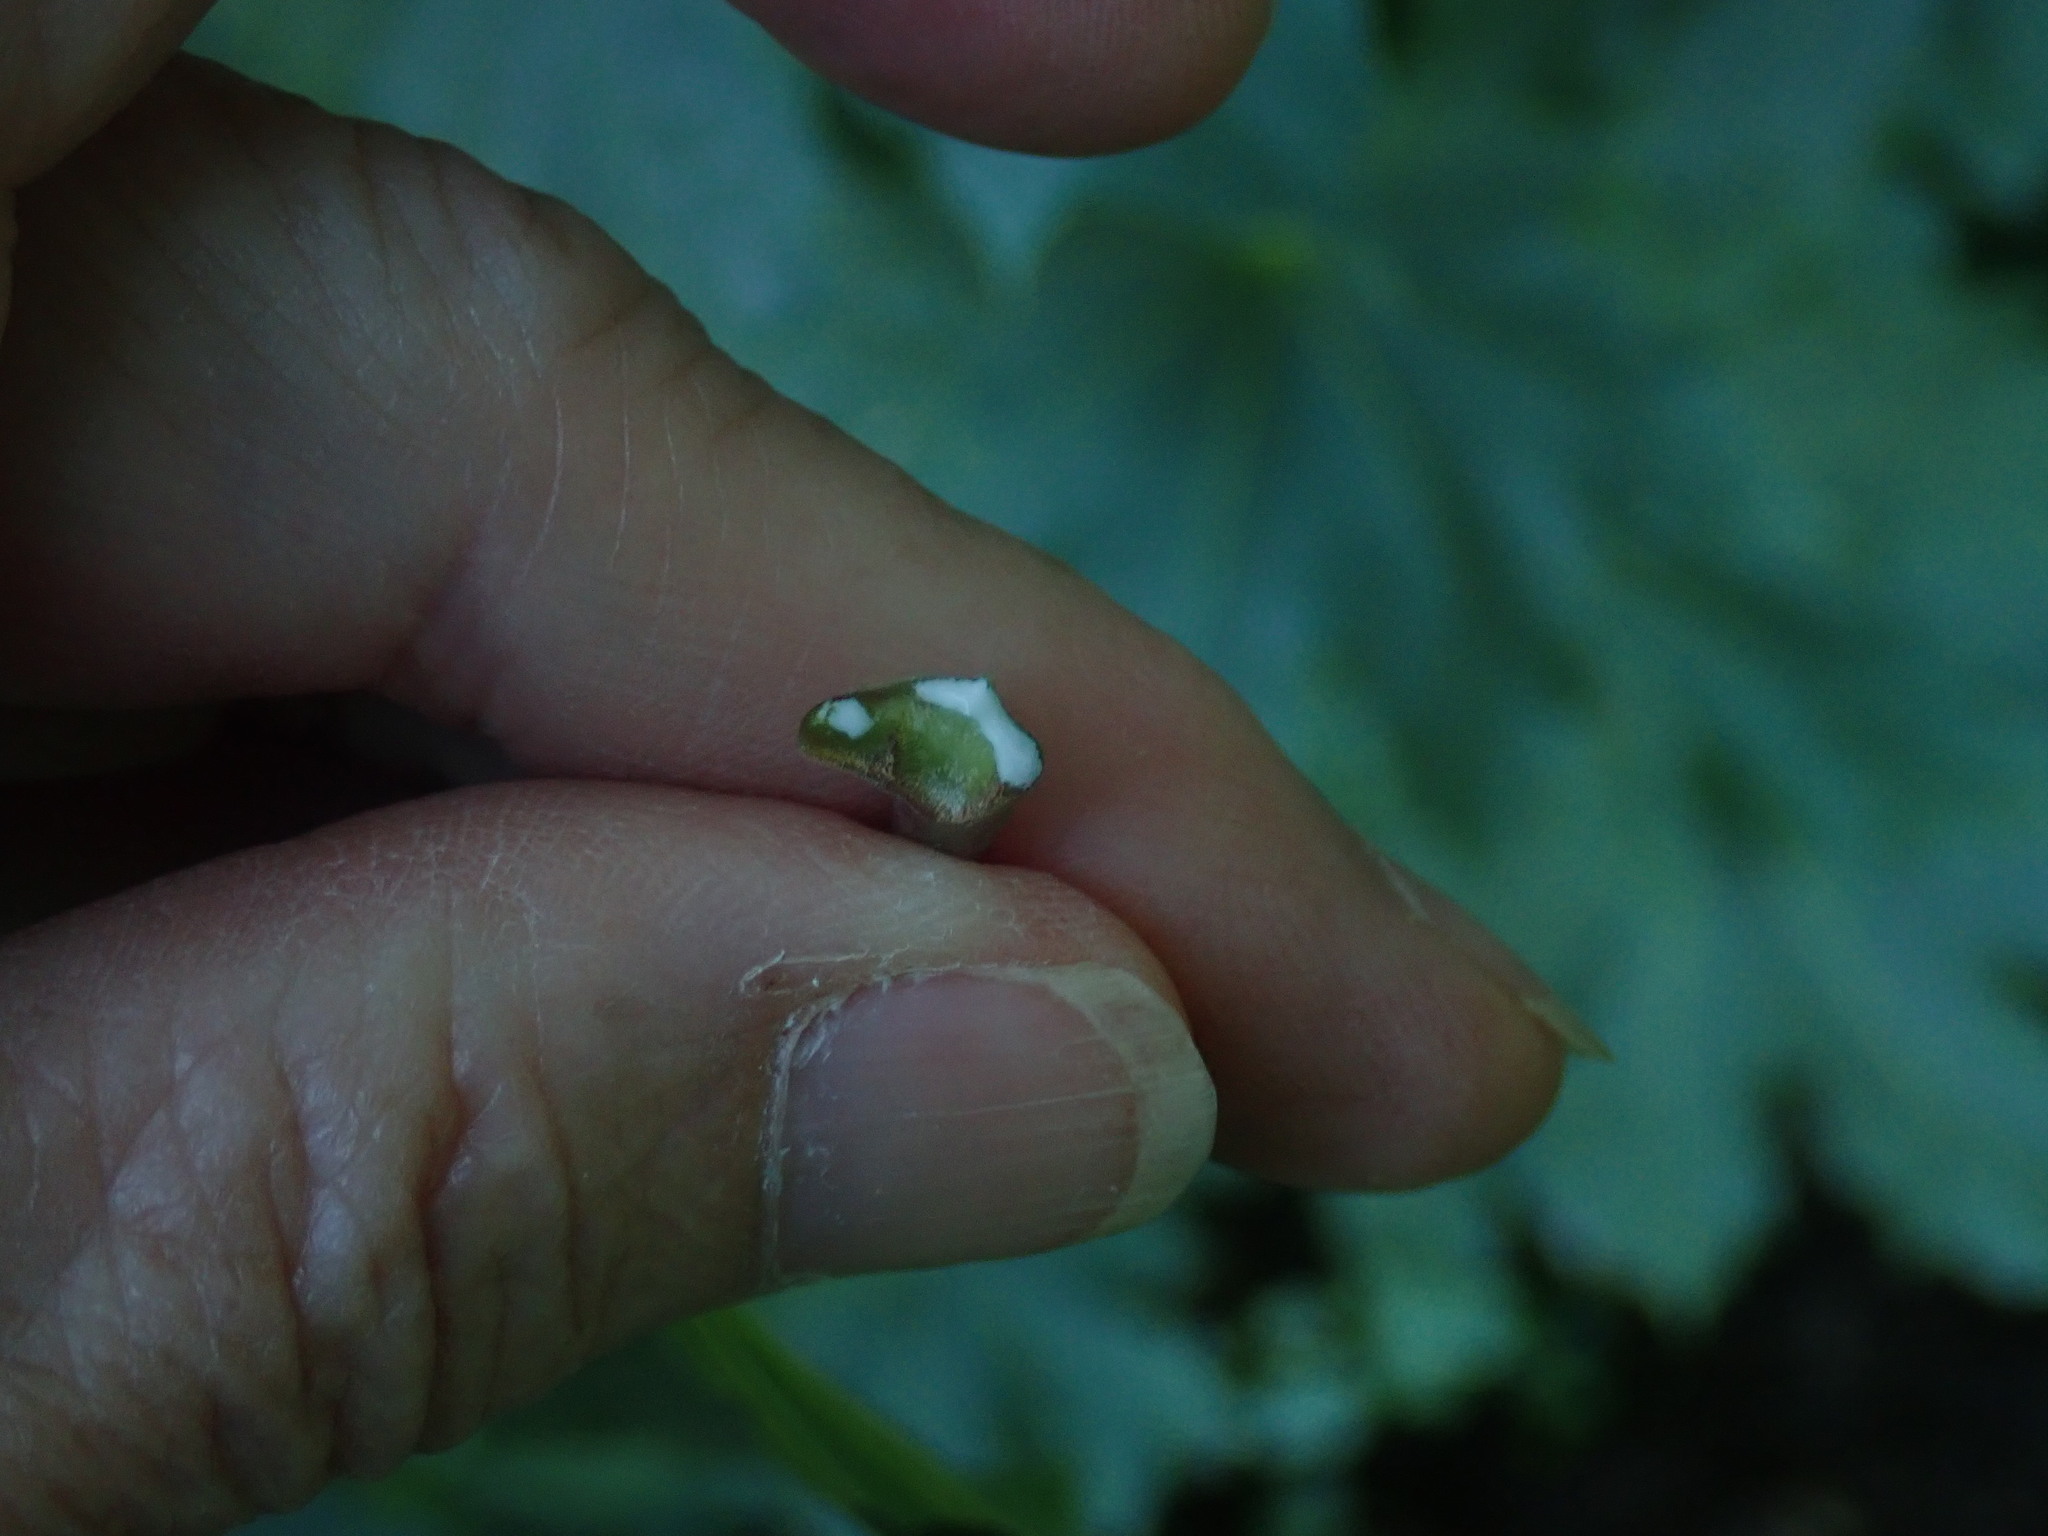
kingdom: Plantae
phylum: Tracheophyta
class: Magnoliopsida
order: Sapindales
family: Sapindaceae
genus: Acer
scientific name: Acer platanoides
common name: Norway maple
